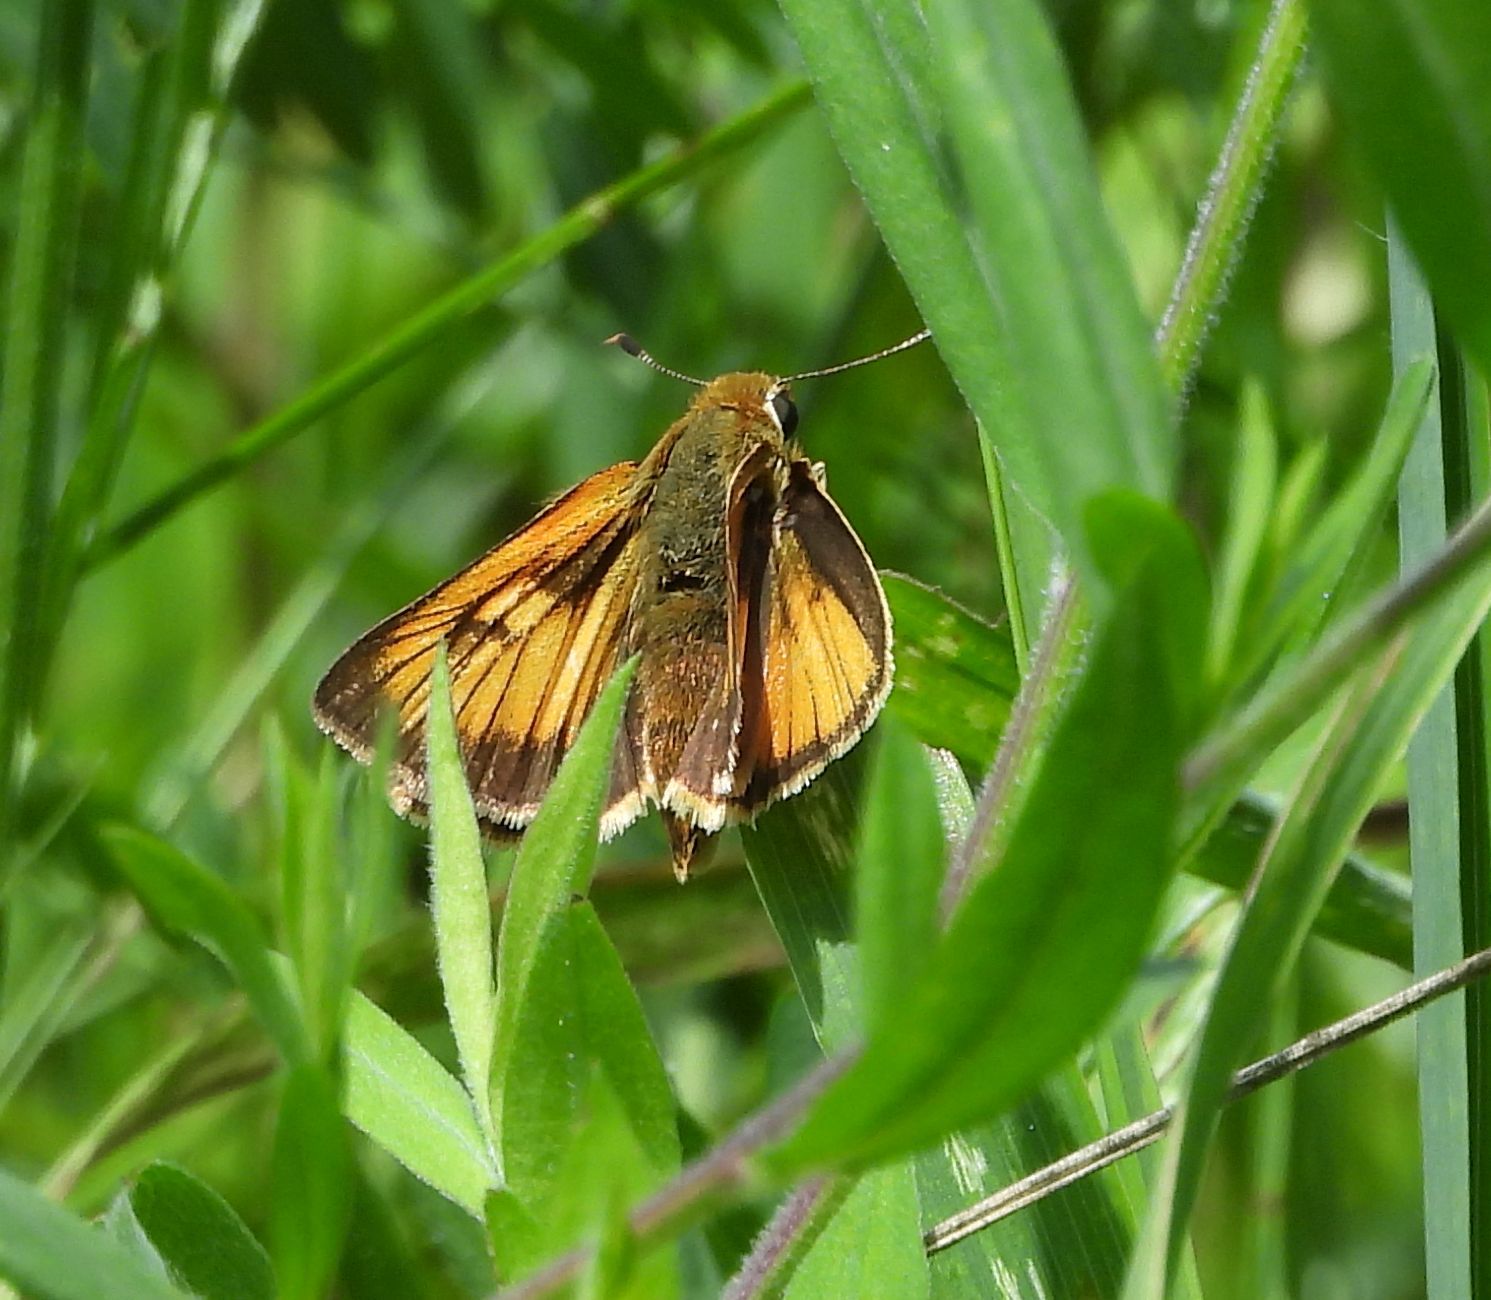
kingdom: Animalia
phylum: Arthropoda
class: Insecta
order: Lepidoptera
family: Hesperiidae
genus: Atrytone
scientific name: Atrytone delaware
